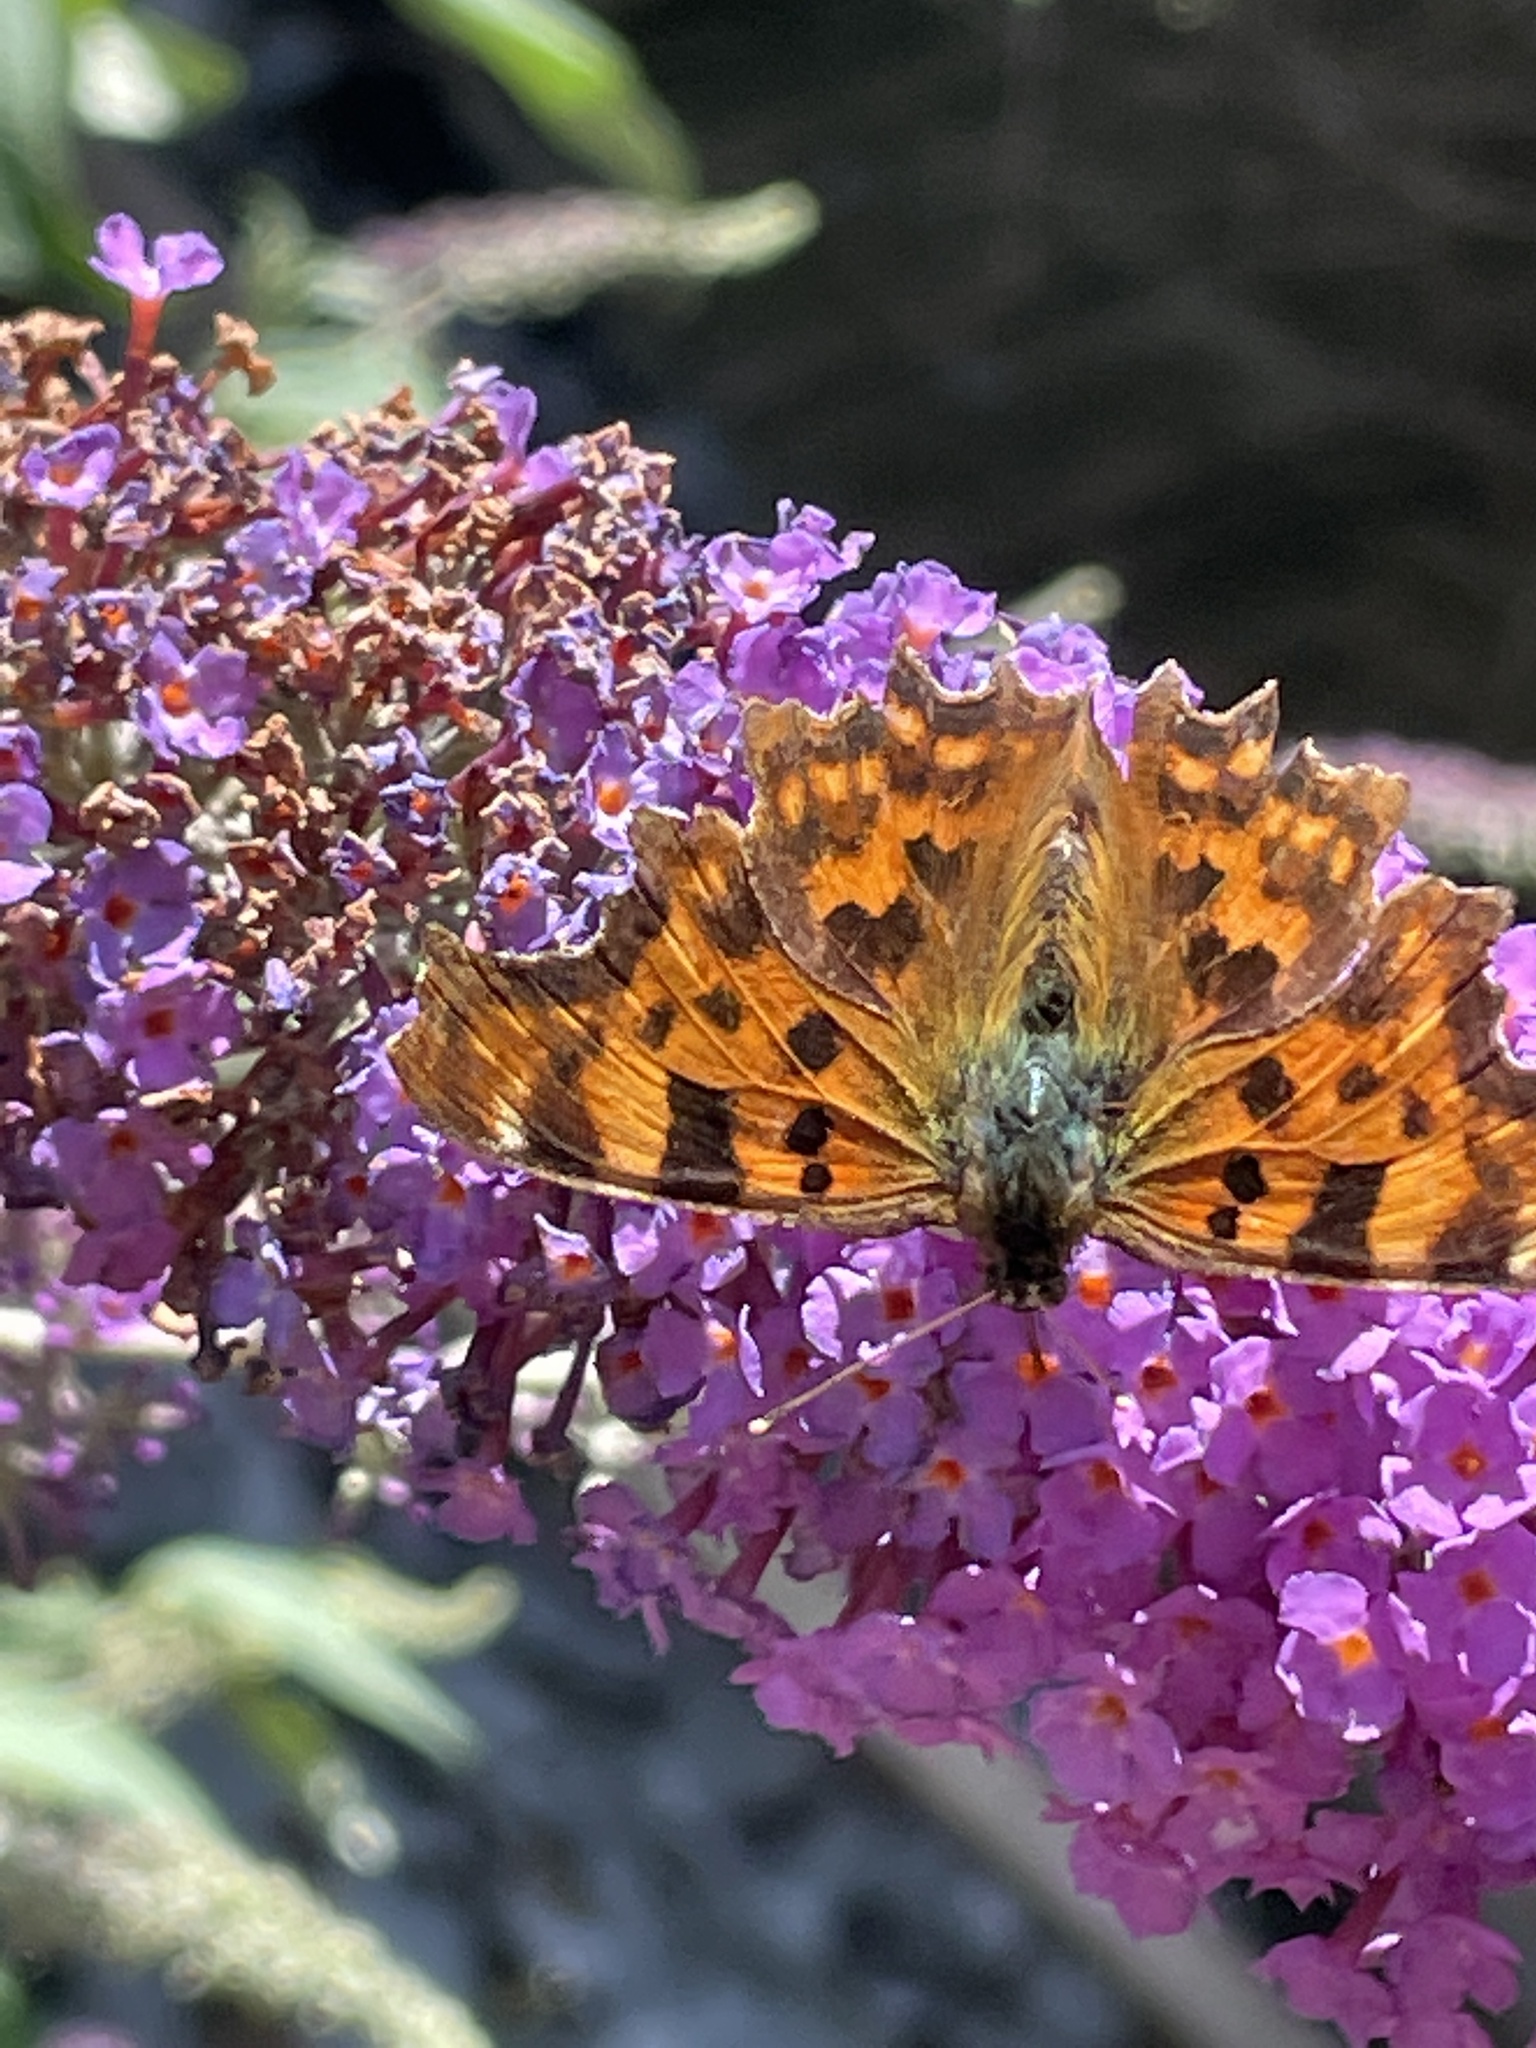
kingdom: Animalia
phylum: Arthropoda
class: Insecta
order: Lepidoptera
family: Nymphalidae
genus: Polygonia
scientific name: Polygonia c-album
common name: Comma
